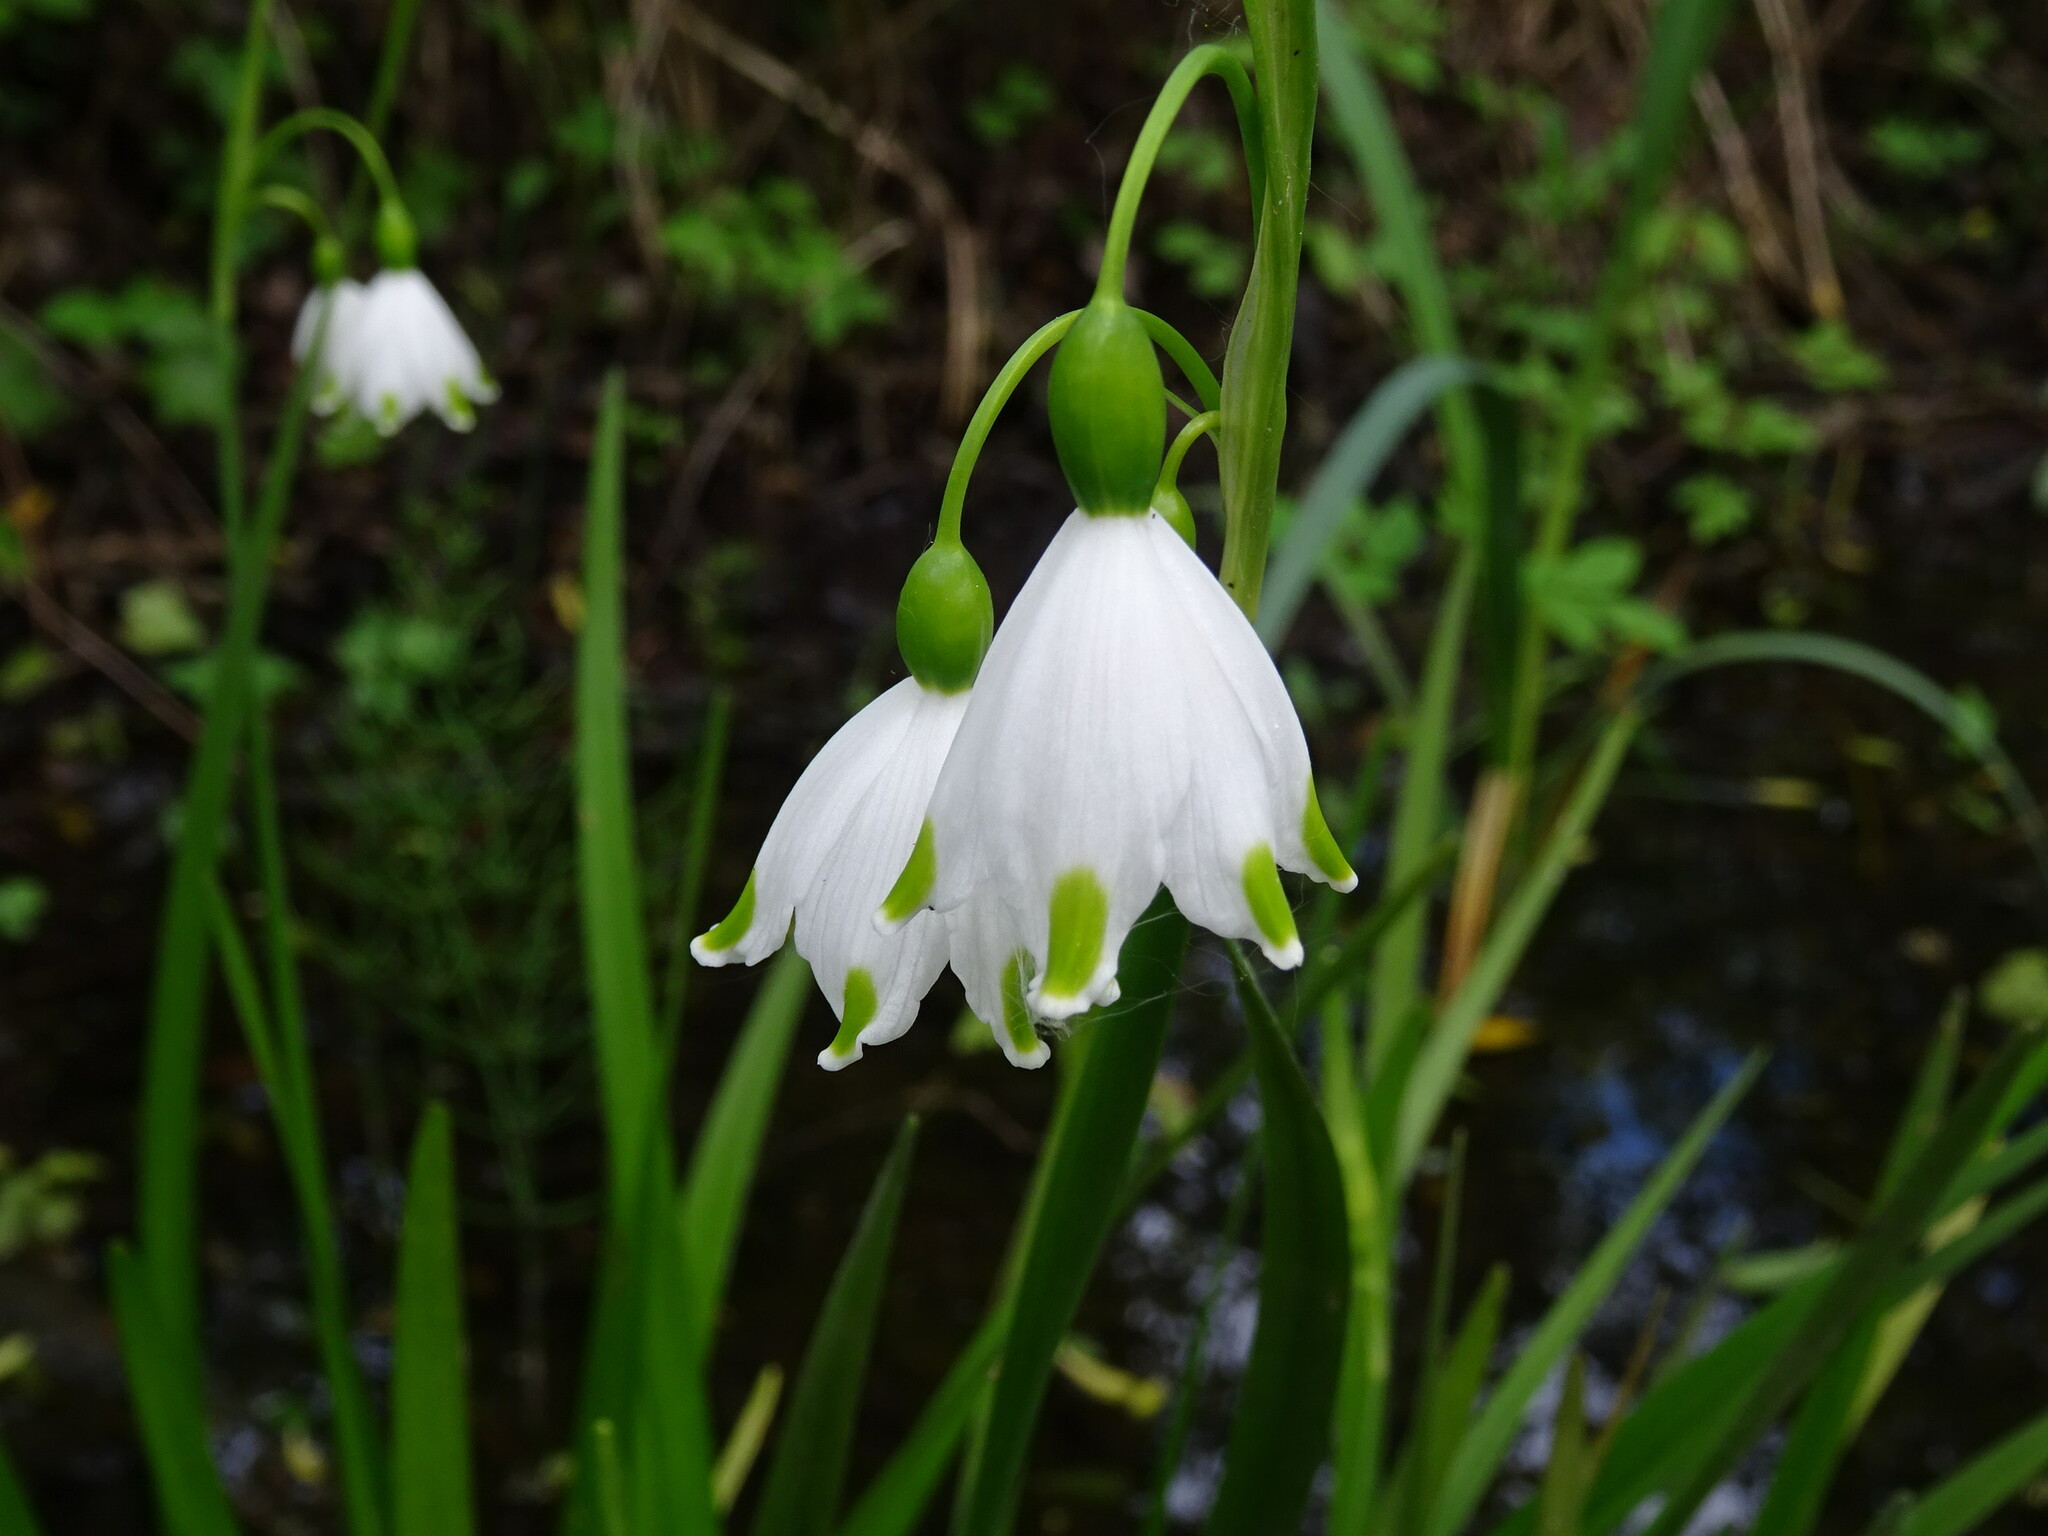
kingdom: Plantae
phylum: Tracheophyta
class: Liliopsida
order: Asparagales
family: Amaryllidaceae
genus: Leucojum
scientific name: Leucojum aestivum
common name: Summer snowflake
